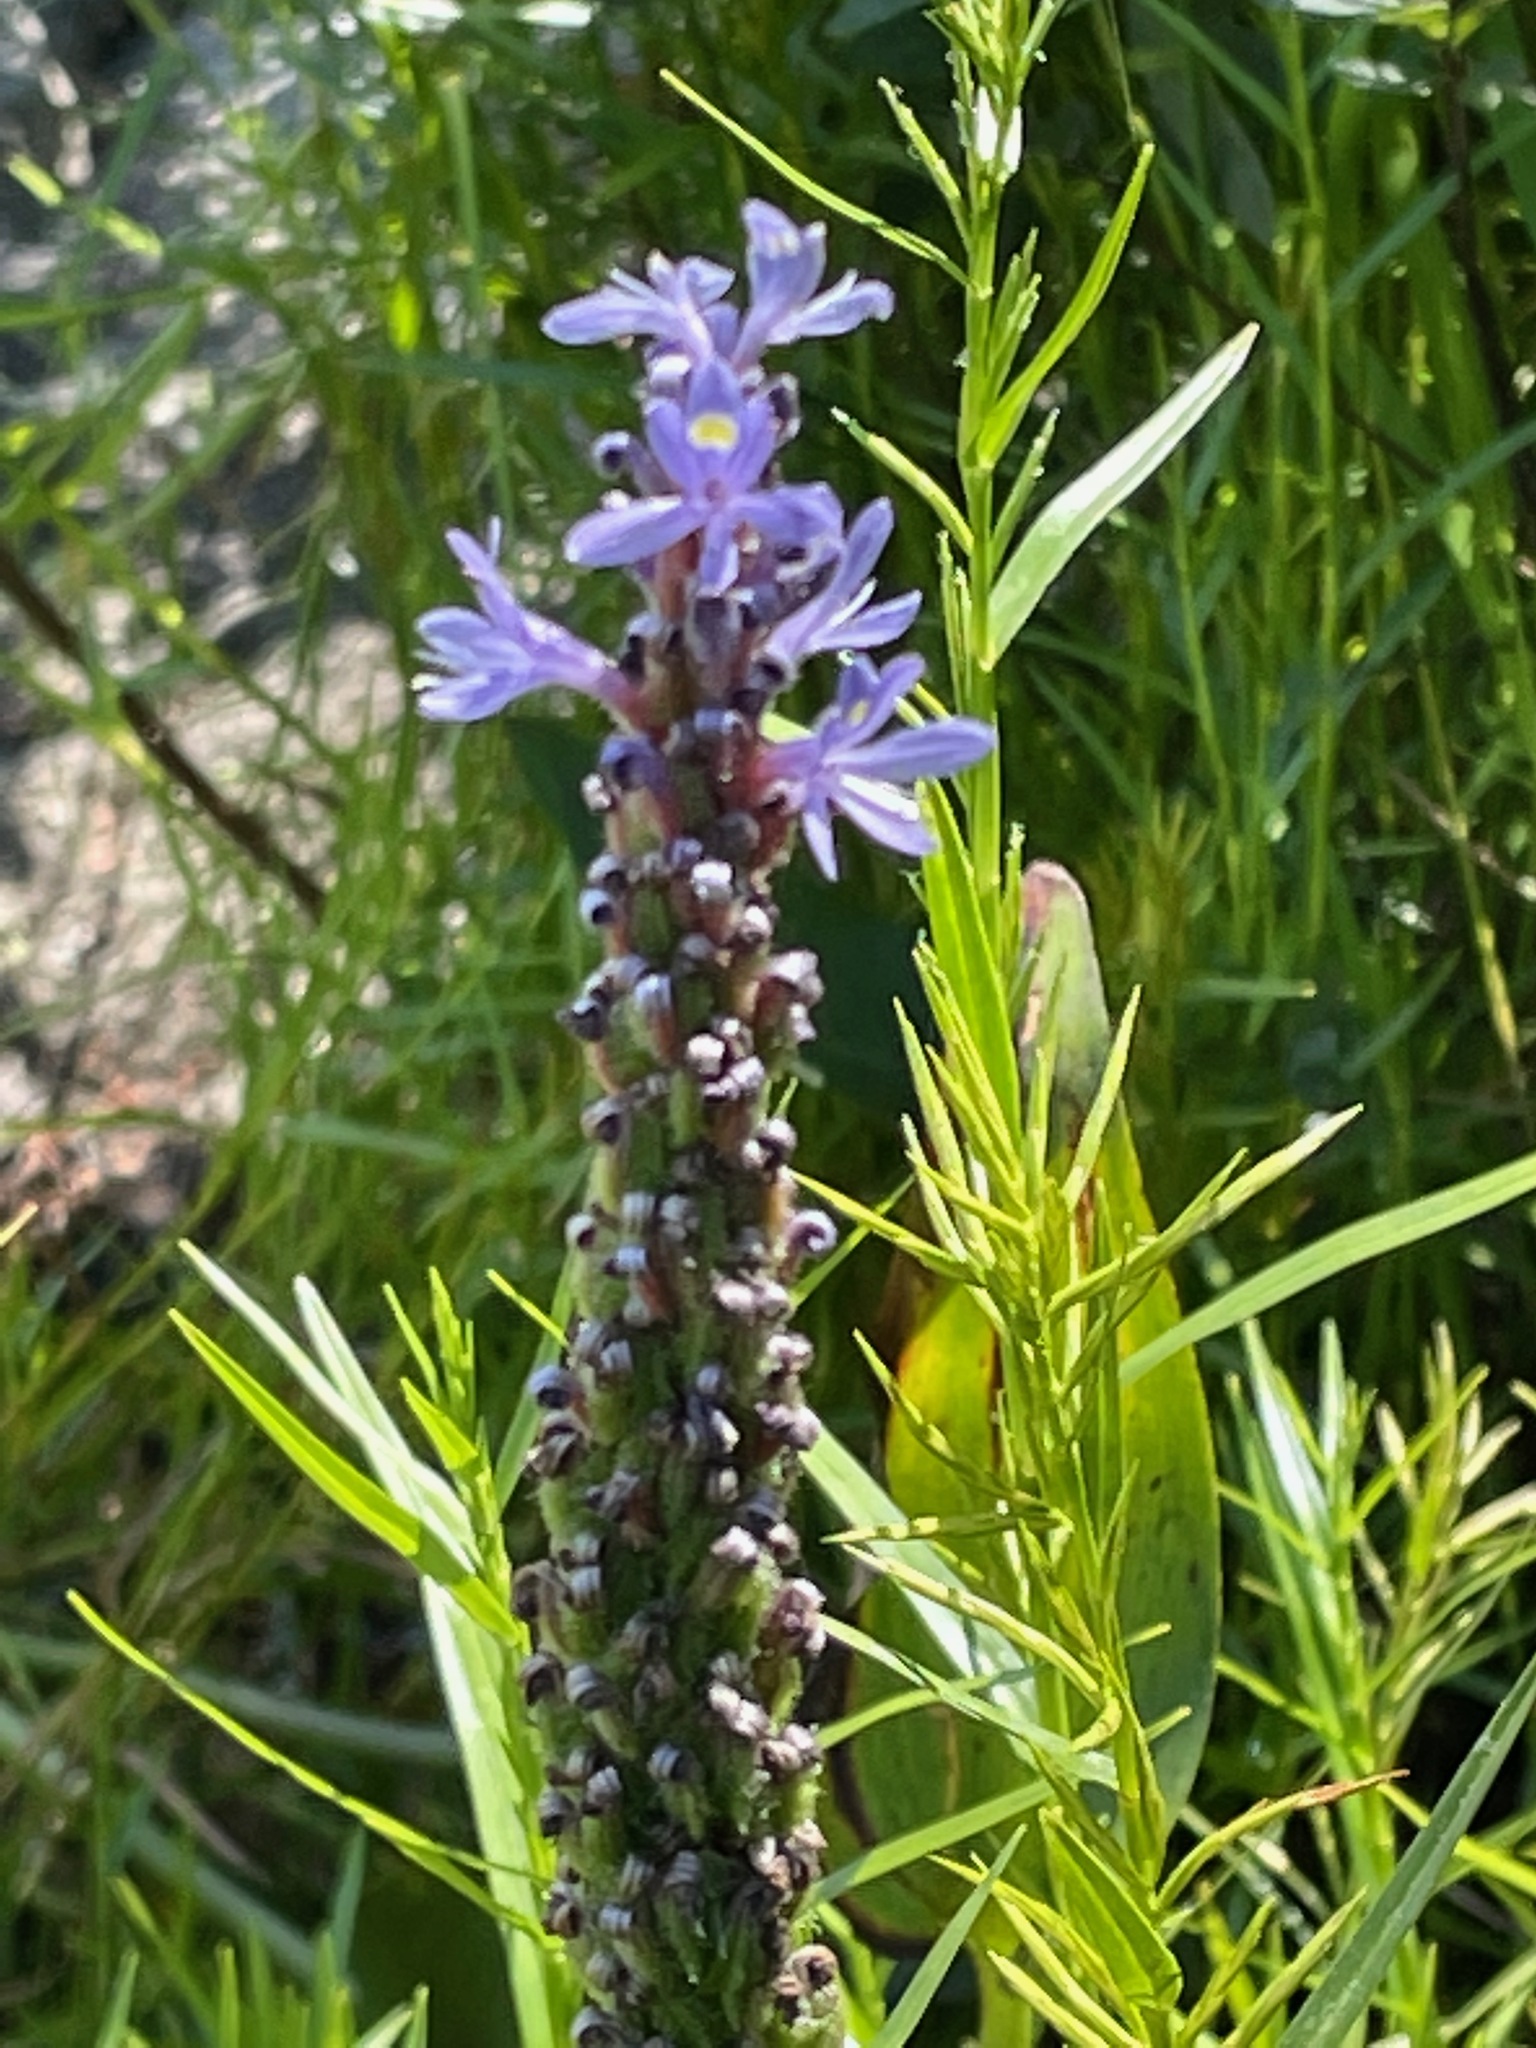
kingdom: Plantae
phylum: Tracheophyta
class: Liliopsida
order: Commelinales
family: Pontederiaceae
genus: Pontederia
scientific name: Pontederia cordata
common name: Pickerelweed
